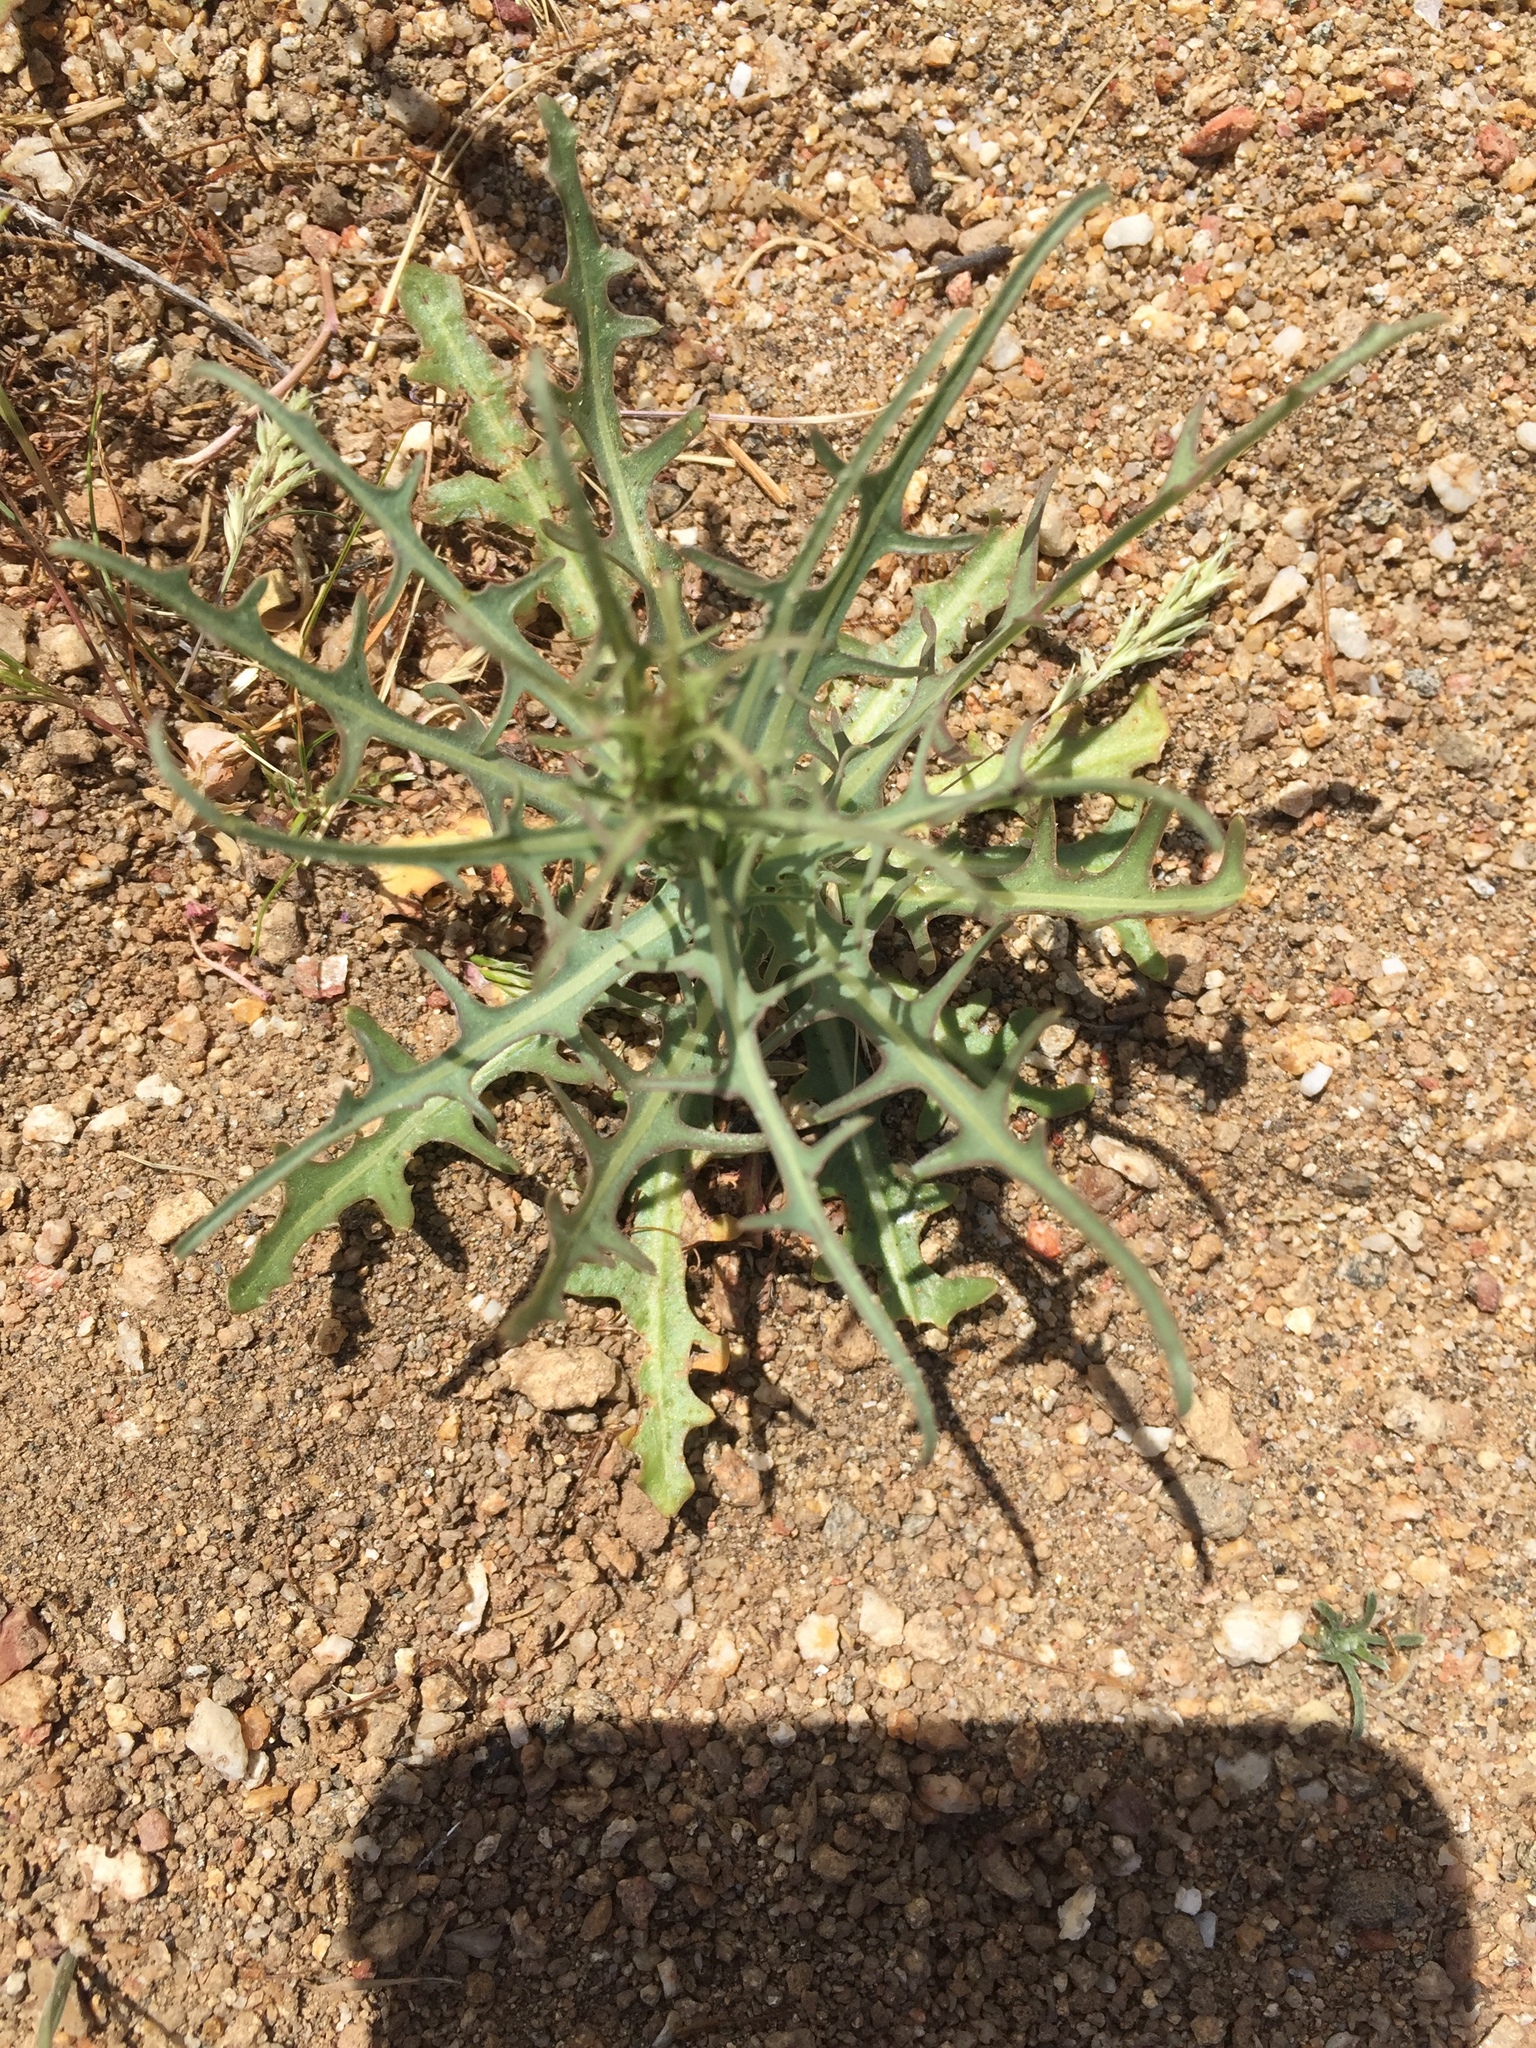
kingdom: Plantae
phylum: Tracheophyta
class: Magnoliopsida
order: Asterales
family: Asteraceae
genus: Stephanomeria
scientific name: Stephanomeria exigua
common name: Small wirelettuce
